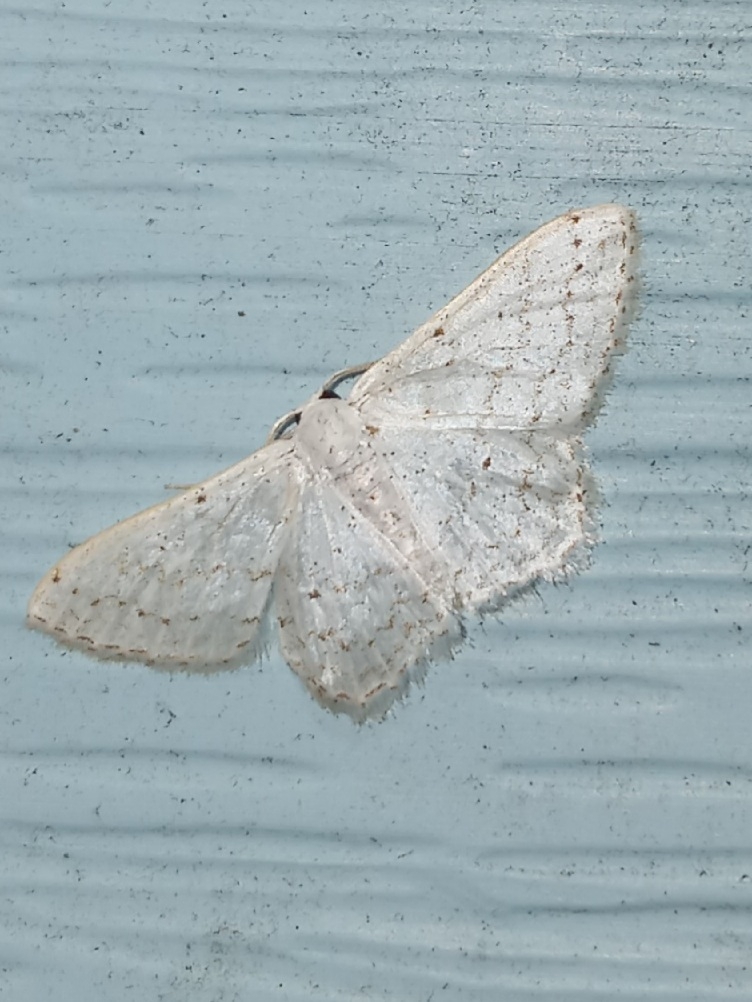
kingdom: Animalia
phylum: Arthropoda
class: Insecta
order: Lepidoptera
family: Geometridae
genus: Idaea
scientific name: Idaea tacturata
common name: Dot-lined wave
